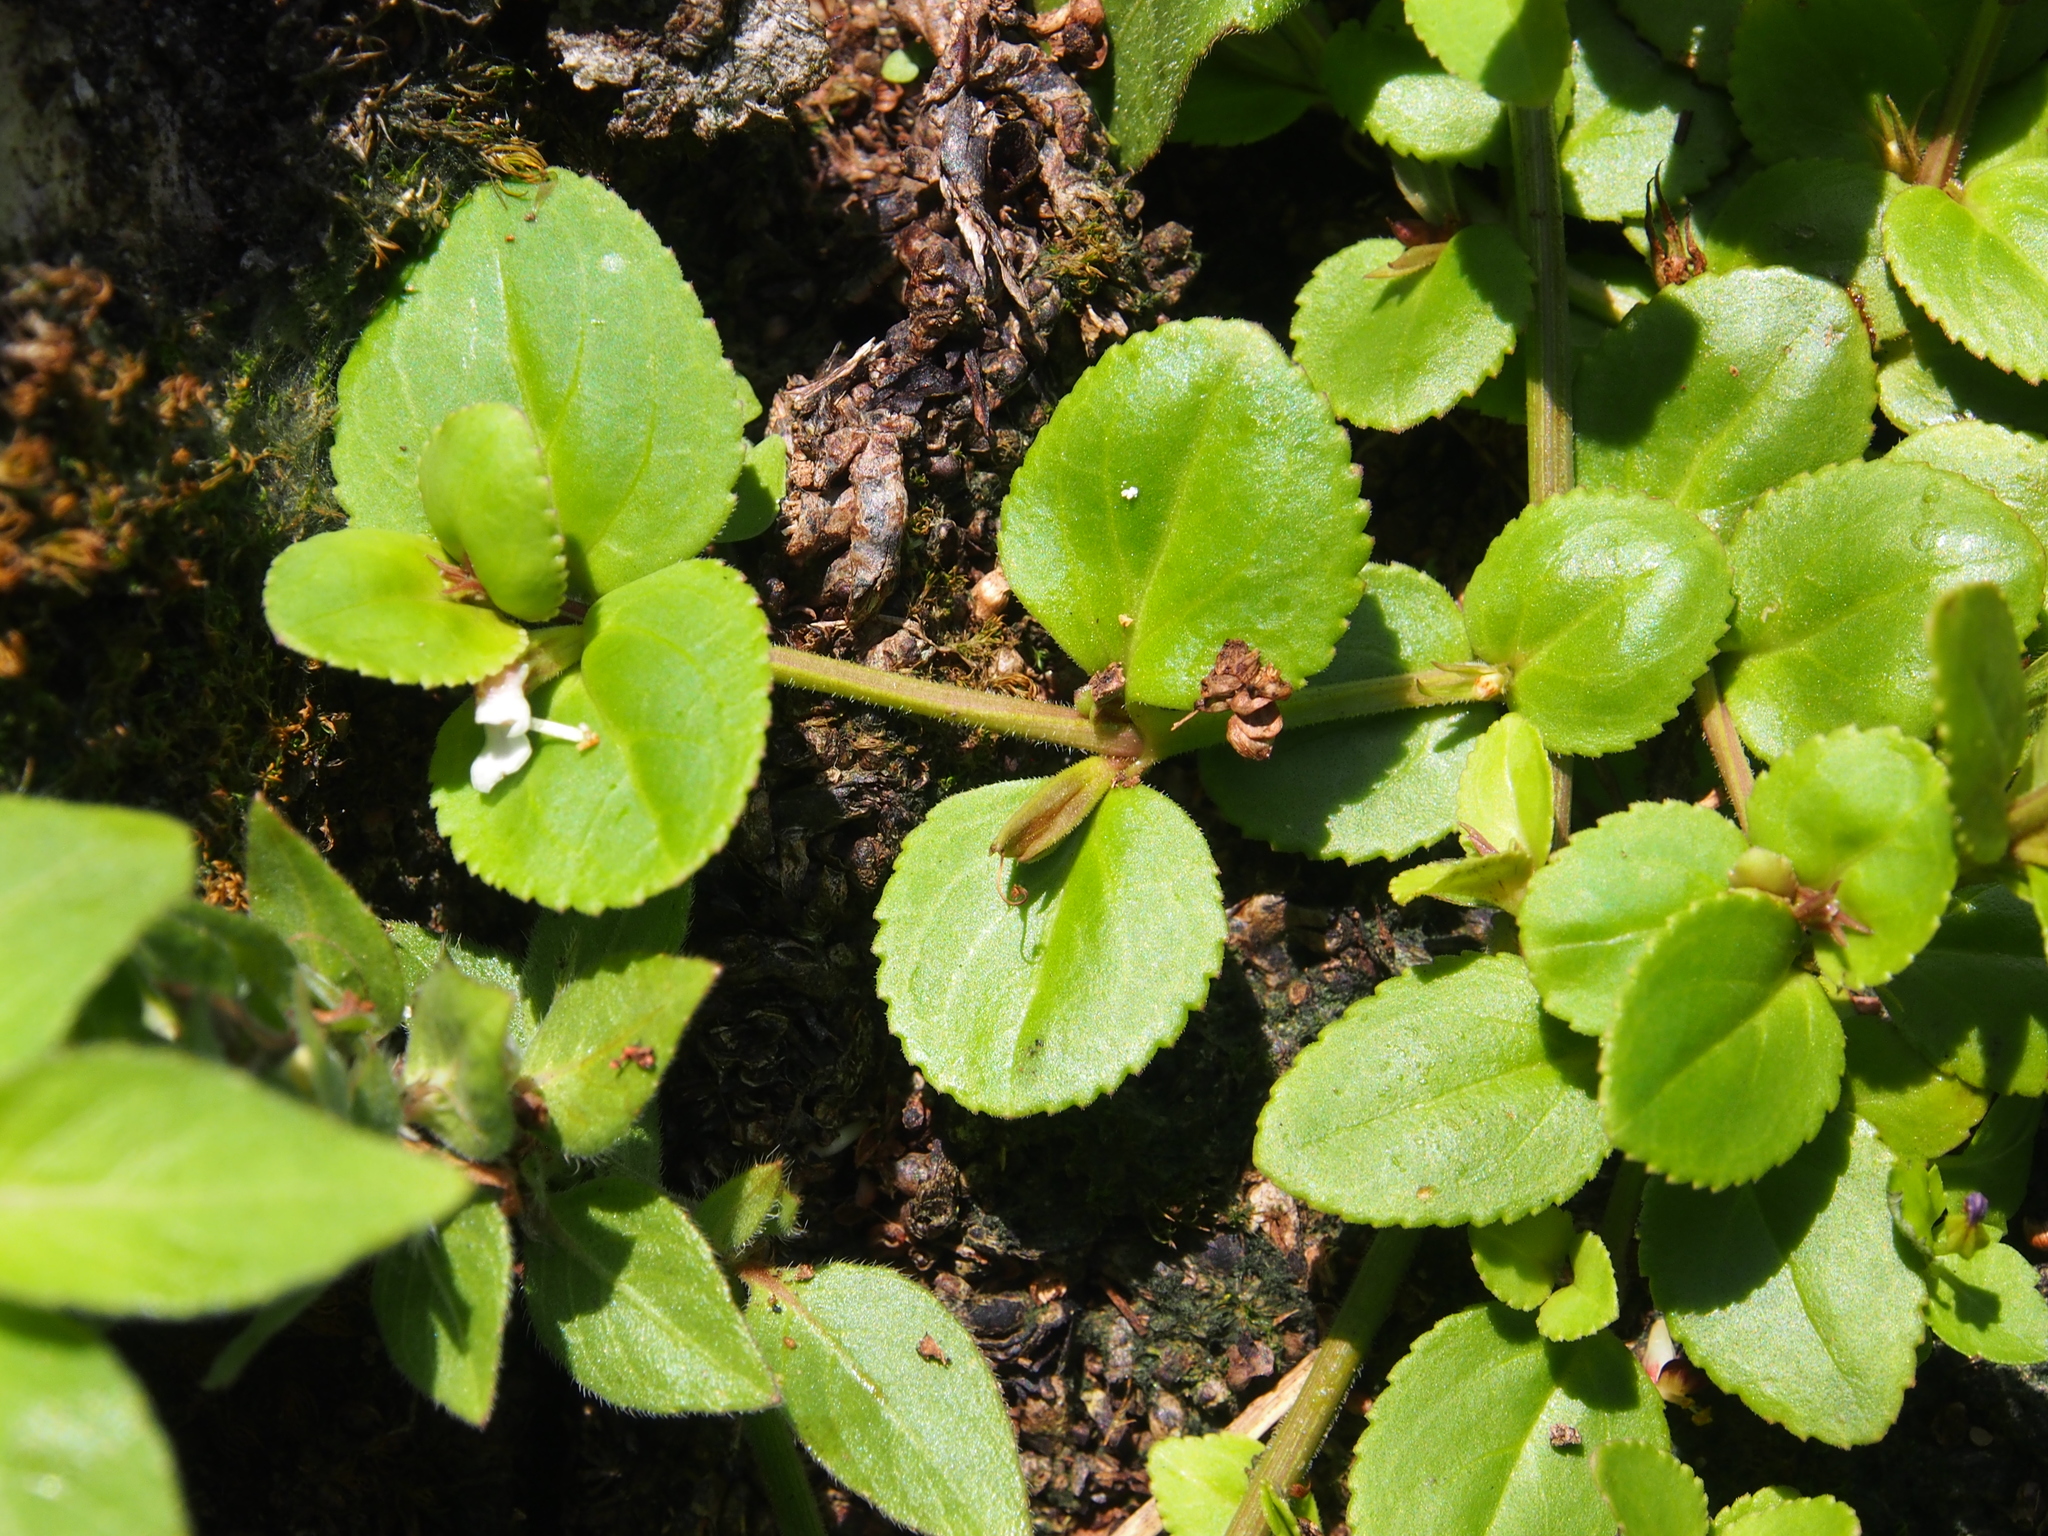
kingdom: Plantae
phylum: Tracheophyta
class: Magnoliopsida
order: Lamiales
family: Linderniaceae
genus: Vandellia
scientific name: Vandellia diffusa
